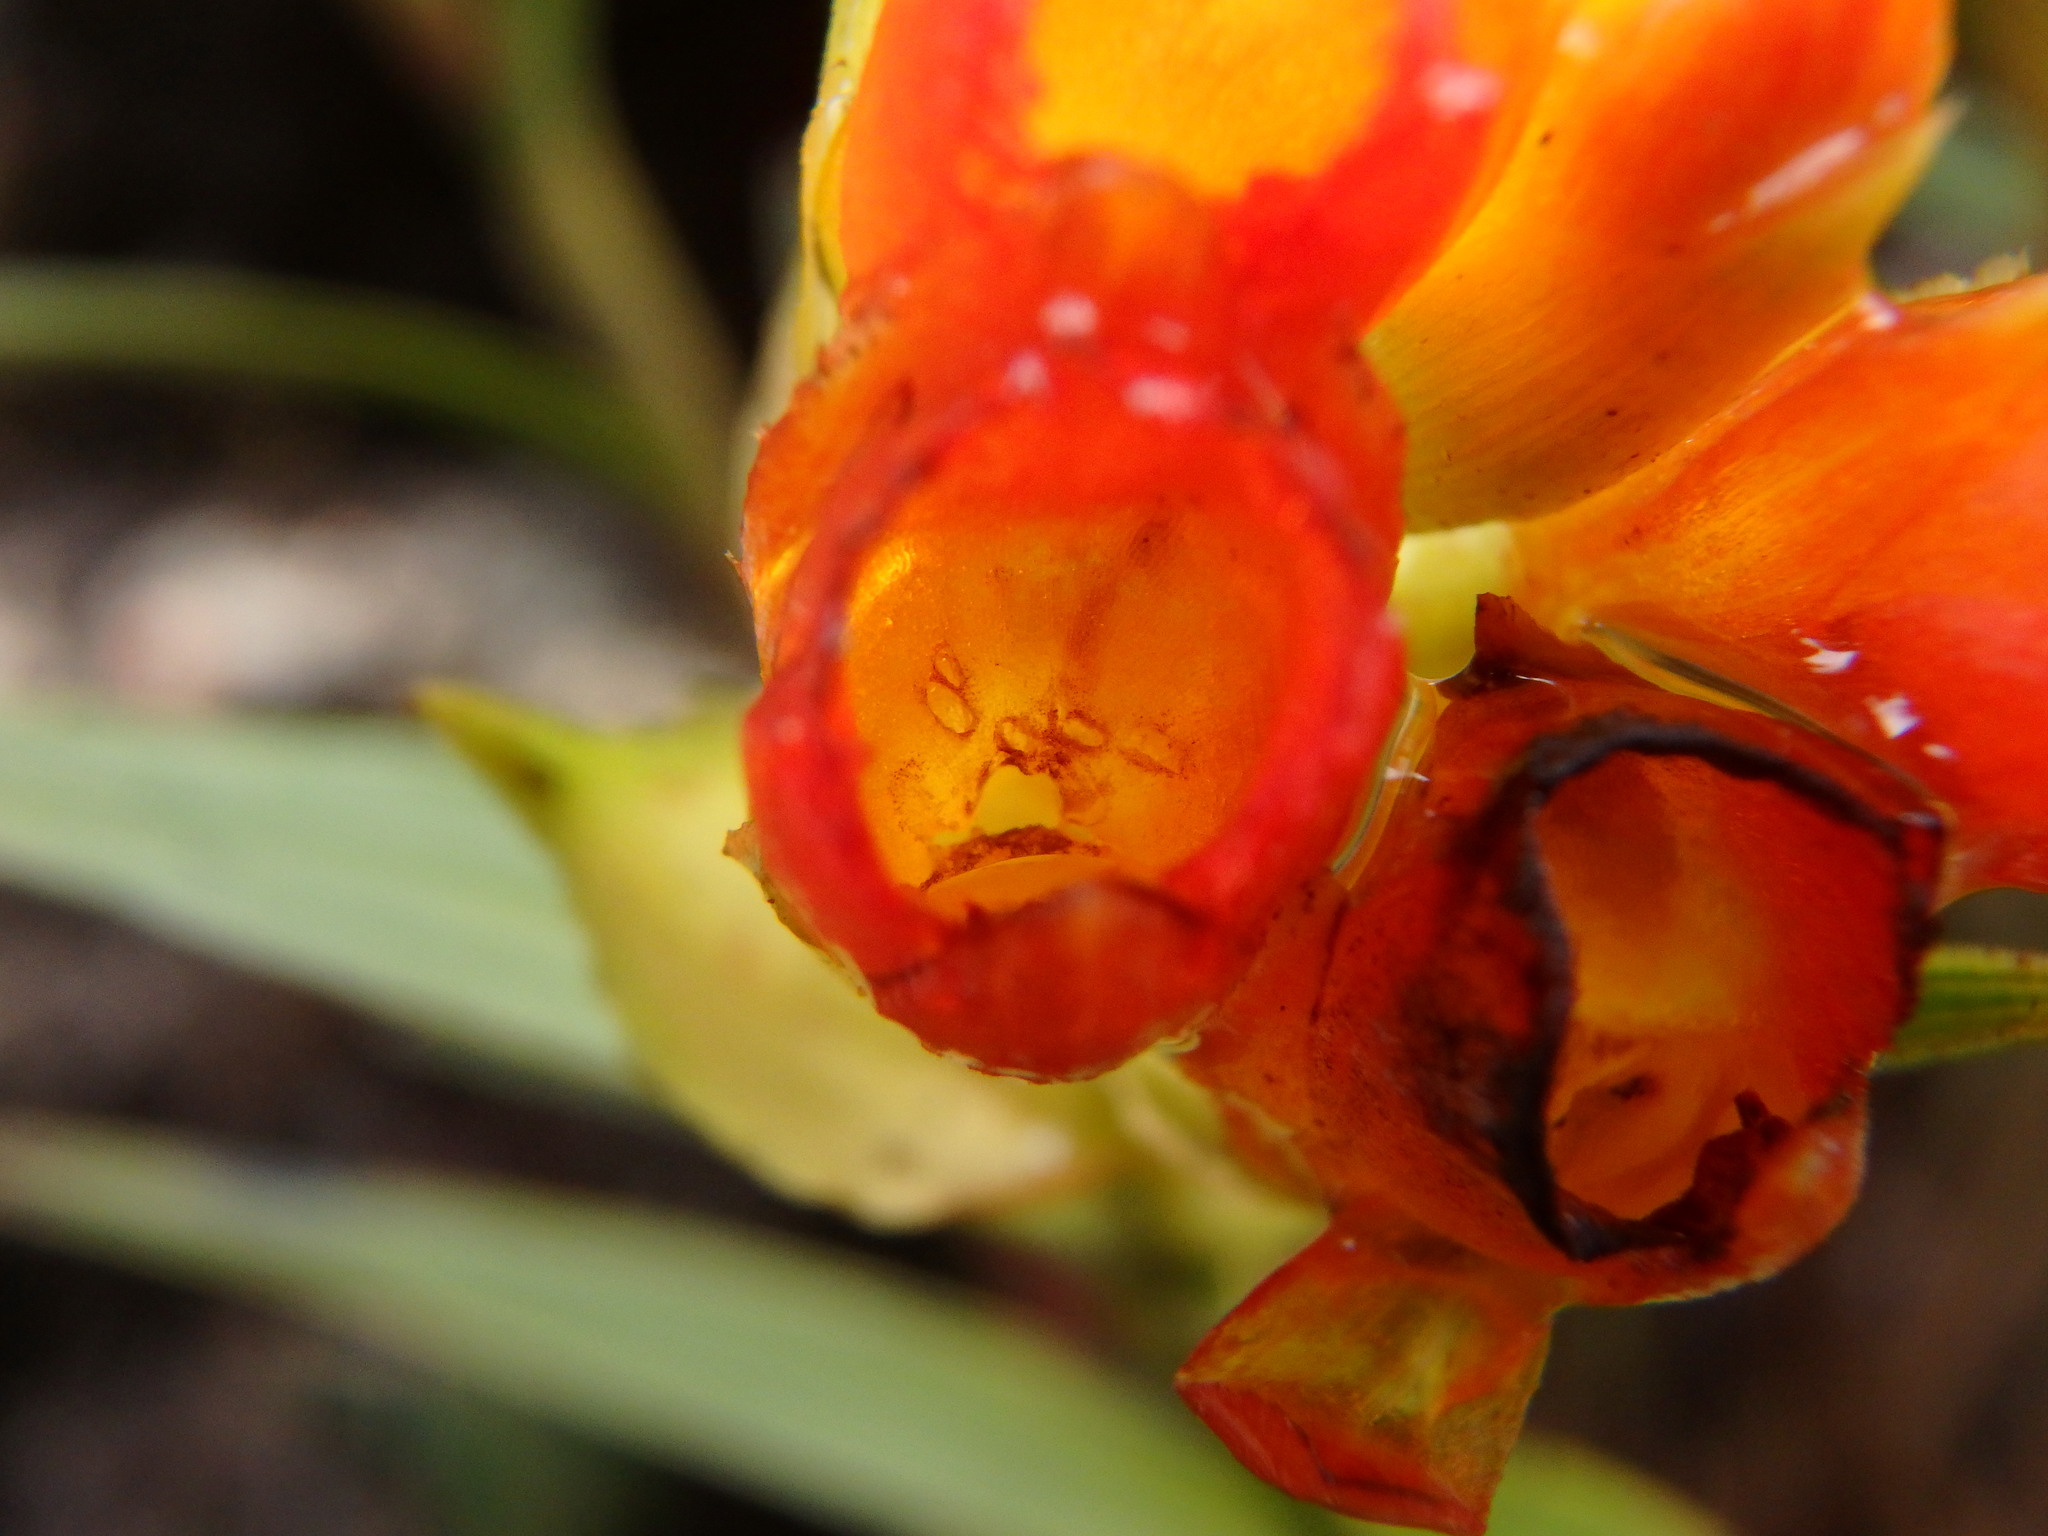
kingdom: Plantae
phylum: Tracheophyta
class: Liliopsida
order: Asparagales
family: Orchidaceae
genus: Elleanthus
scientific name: Elleanthus aurantiacus
